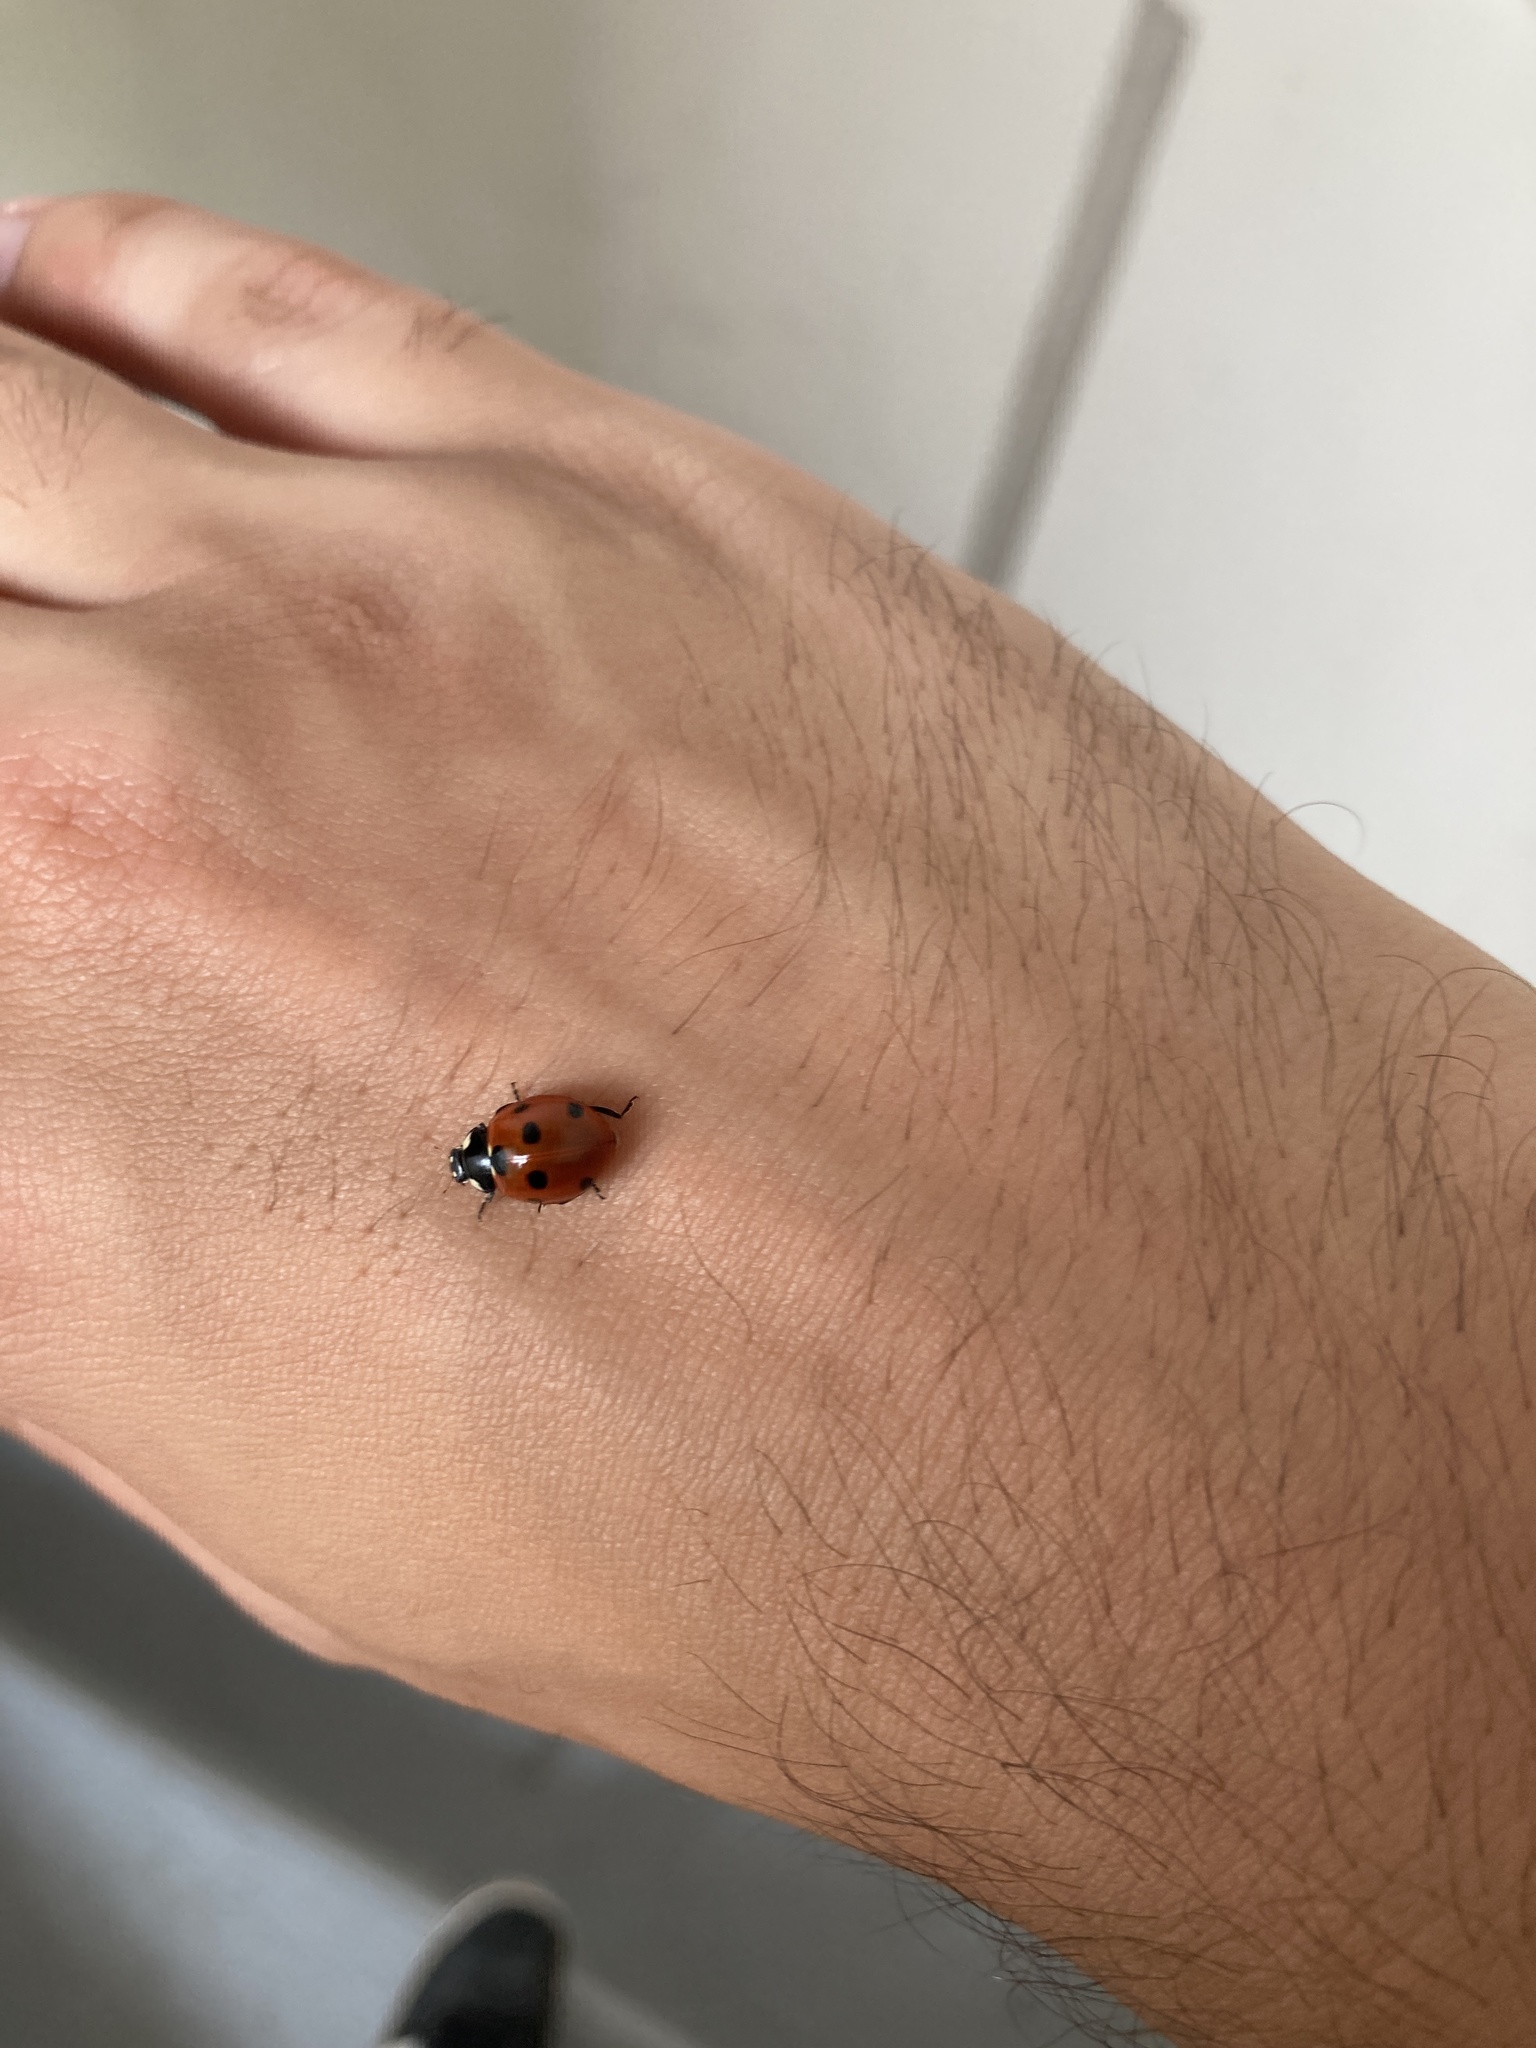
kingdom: Animalia
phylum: Arthropoda
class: Insecta
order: Coleoptera
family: Coccinellidae
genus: Coccinella
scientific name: Coccinella septempunctata
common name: Sevenspotted lady beetle
